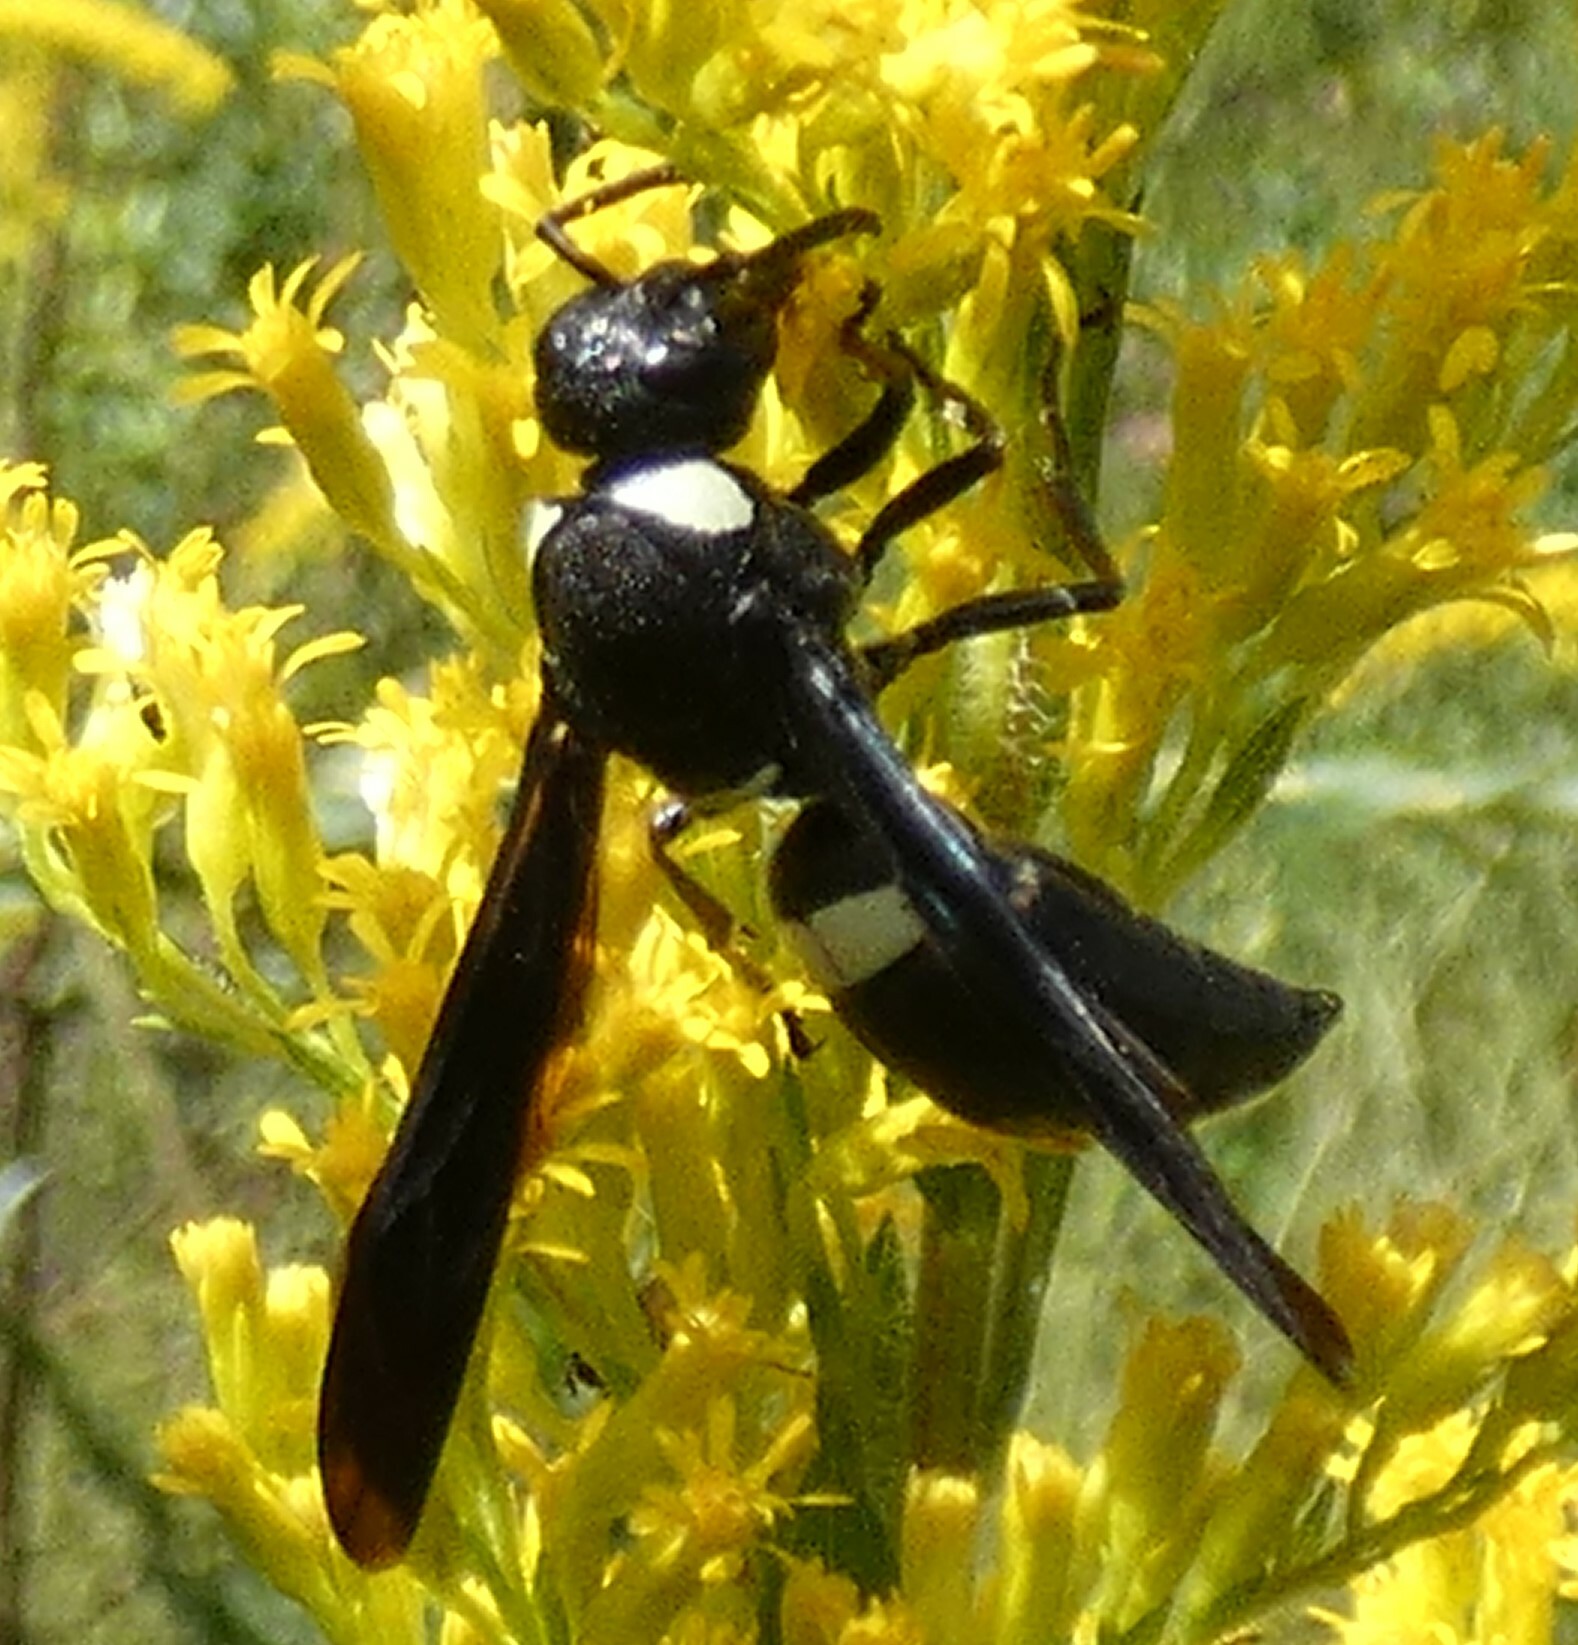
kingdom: Animalia
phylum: Arthropoda
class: Insecta
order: Hymenoptera
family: Eumenidae
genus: Monobia
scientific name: Monobia quadridens
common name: Four-toothed mason wasp
